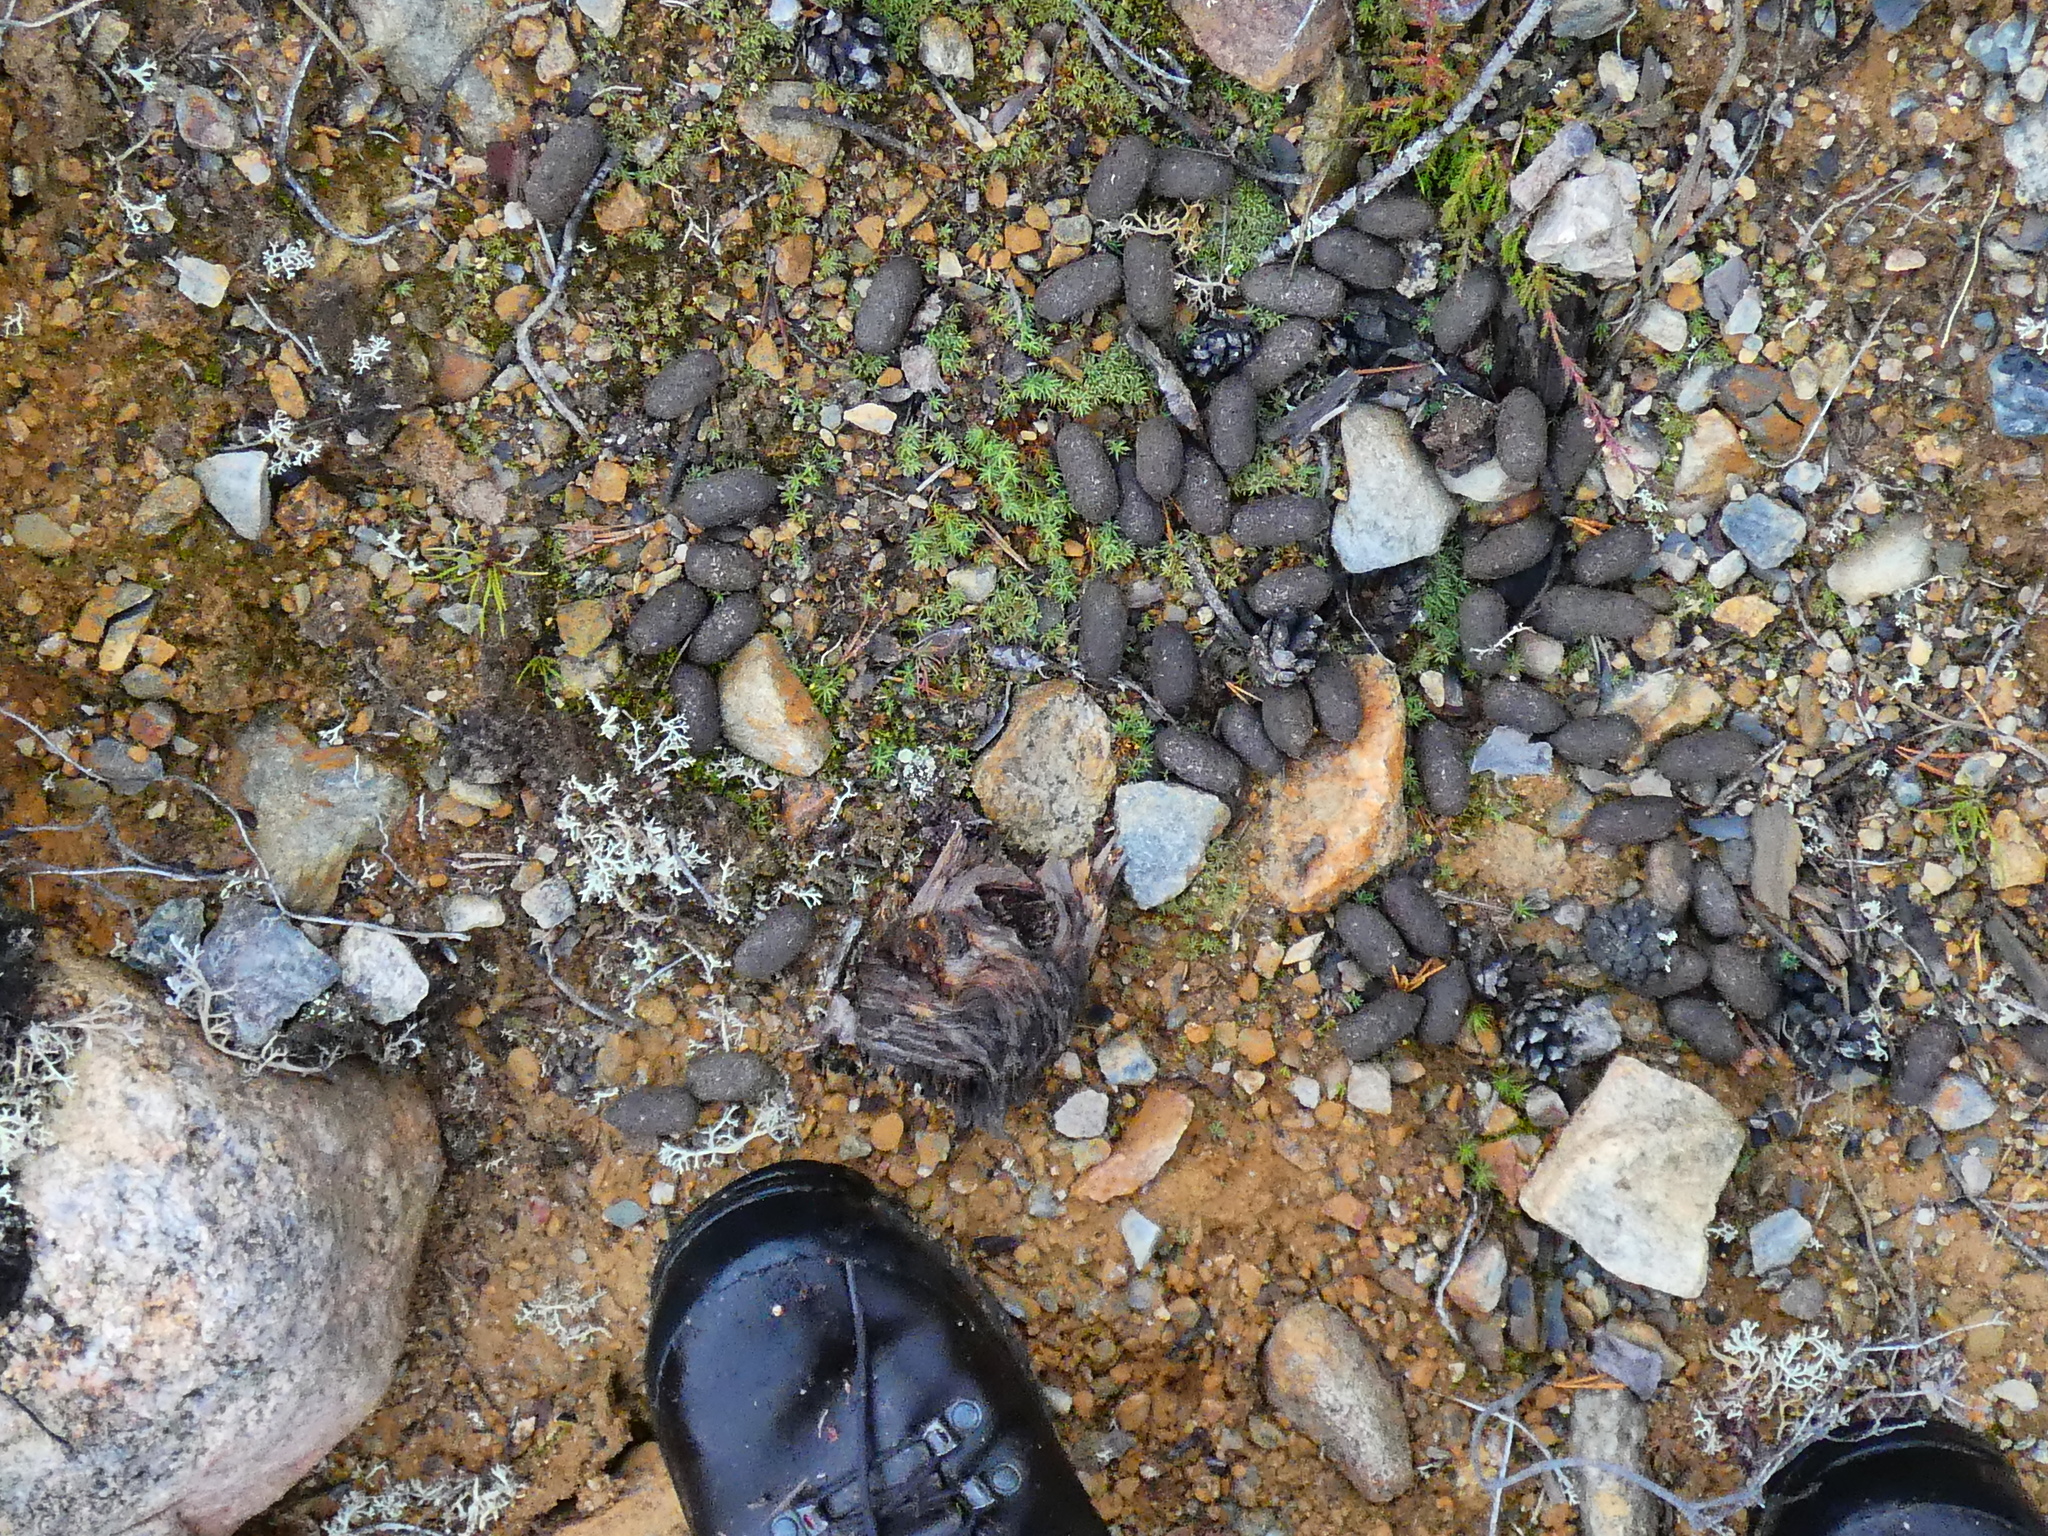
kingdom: Animalia
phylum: Chordata
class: Mammalia
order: Artiodactyla
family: Cervidae
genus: Alces
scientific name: Alces alces
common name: Moose
